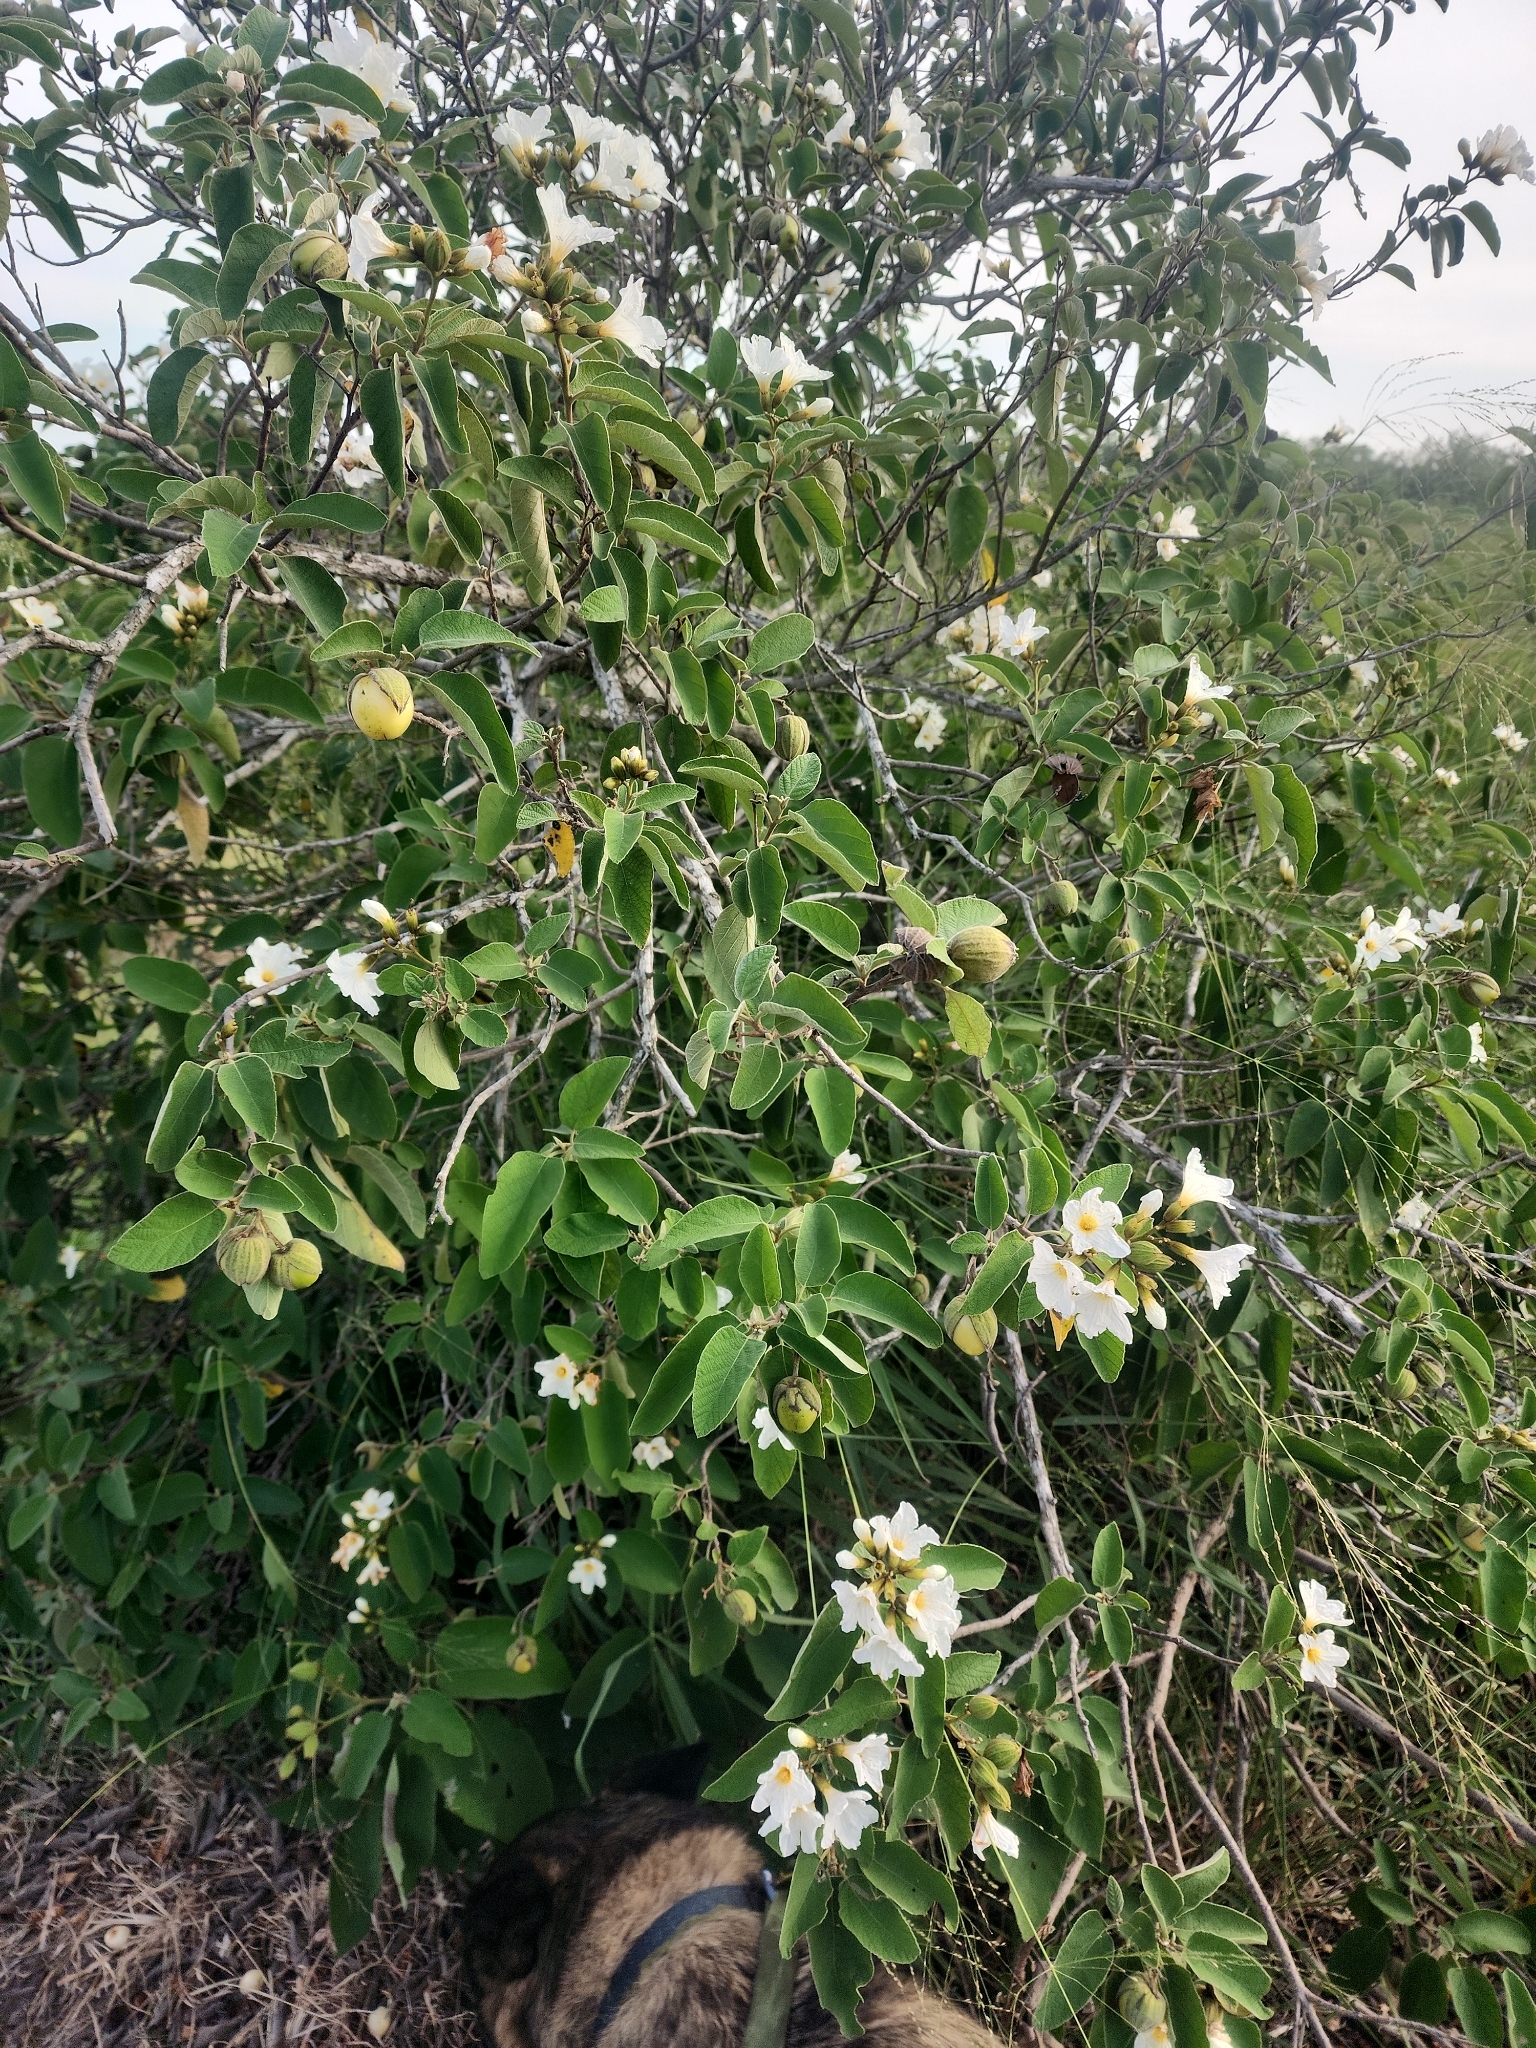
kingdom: Plantae
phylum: Tracheophyta
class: Magnoliopsida
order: Boraginales
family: Cordiaceae
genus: Cordia
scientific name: Cordia boissieri
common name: Mexican-olive
